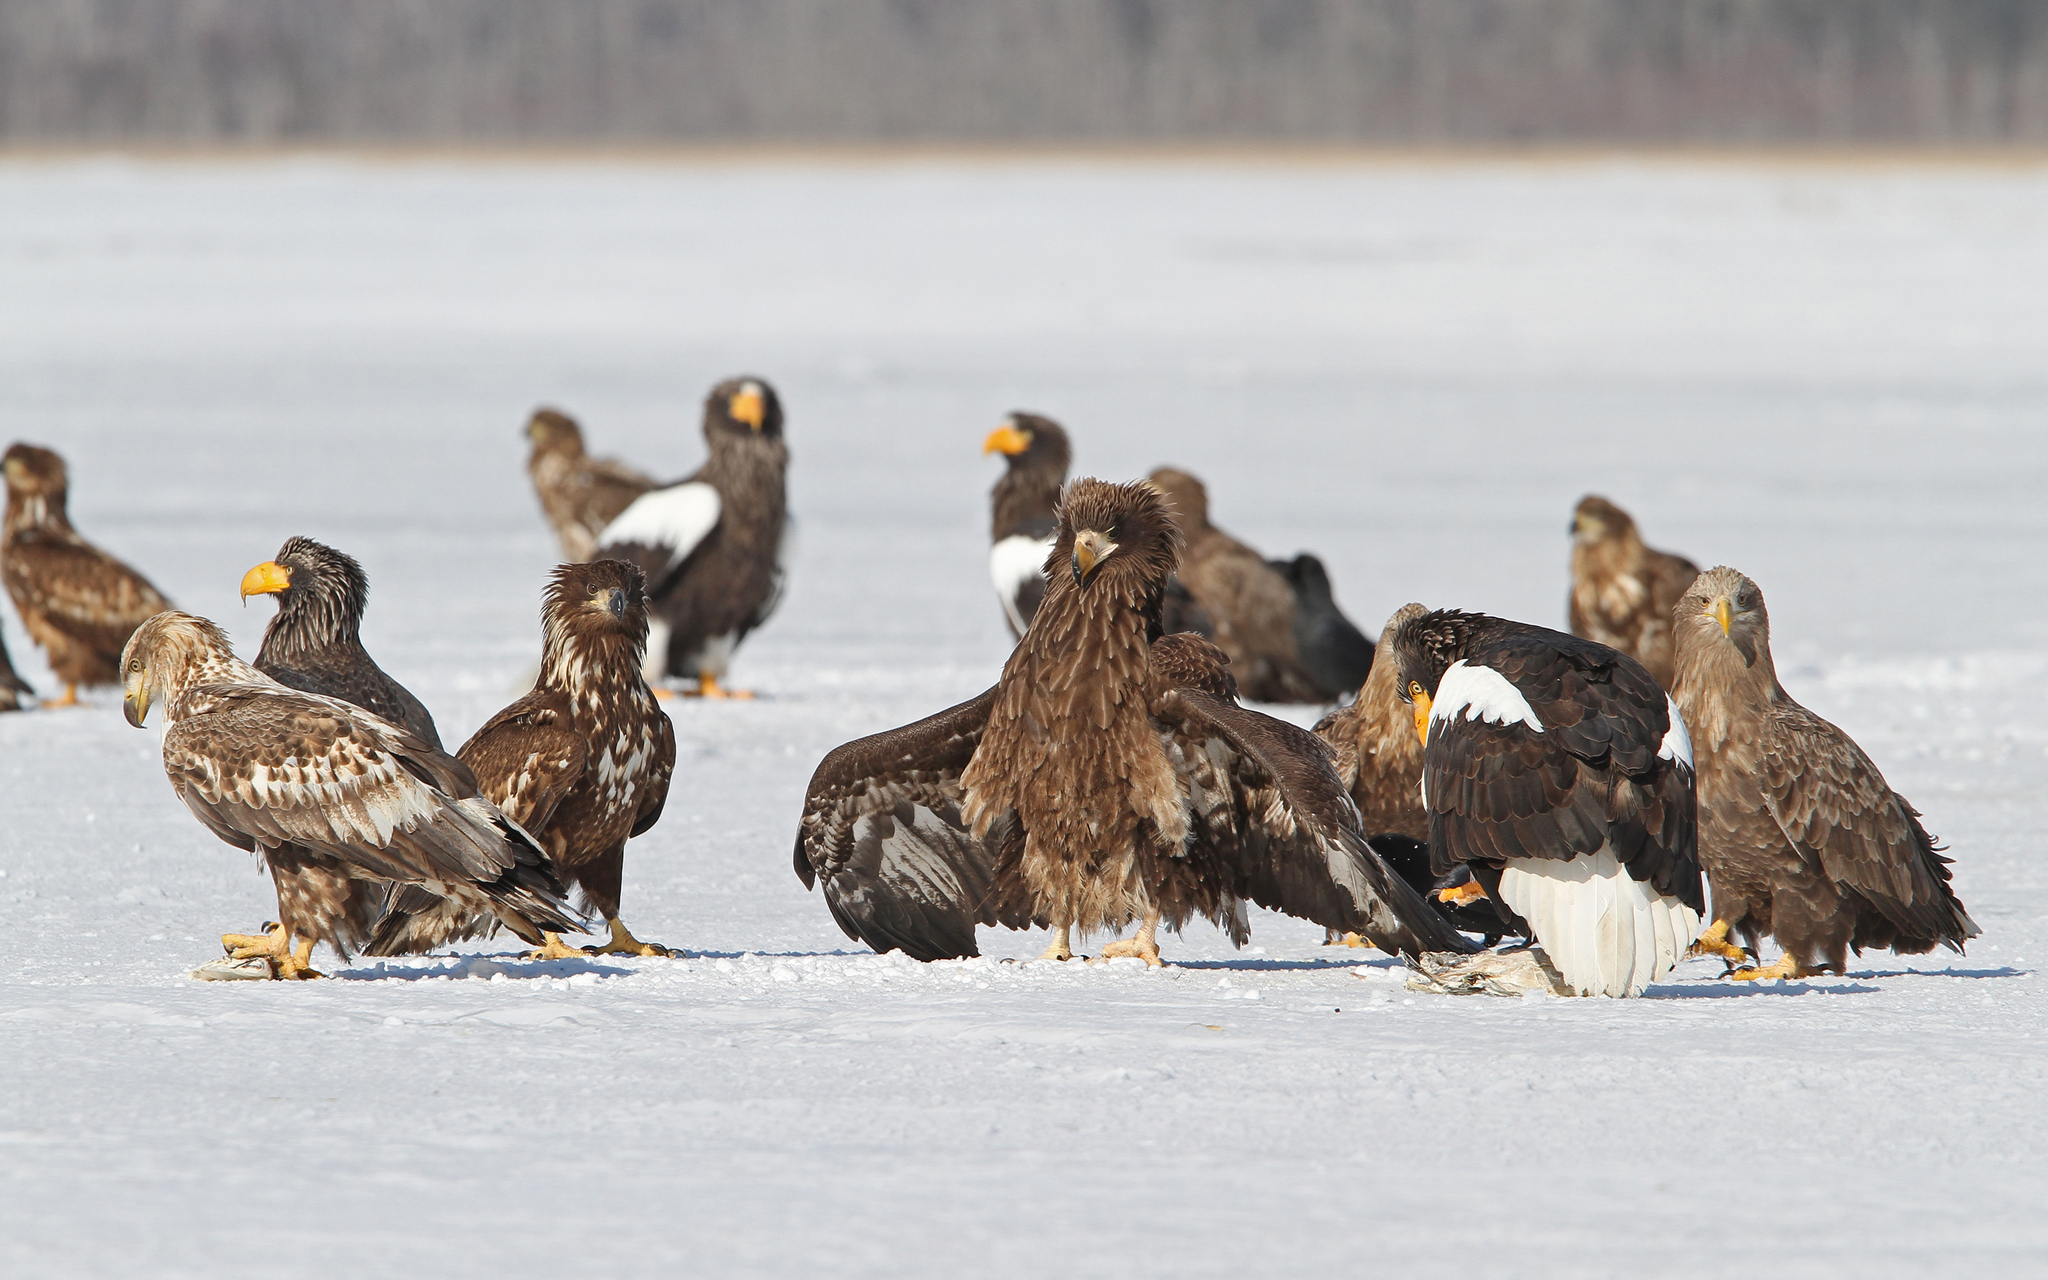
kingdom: Animalia
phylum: Chordata
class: Aves
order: Accipitriformes
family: Accipitridae
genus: Haliaeetus
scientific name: Haliaeetus pelagicus
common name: Steller's sea eagle
